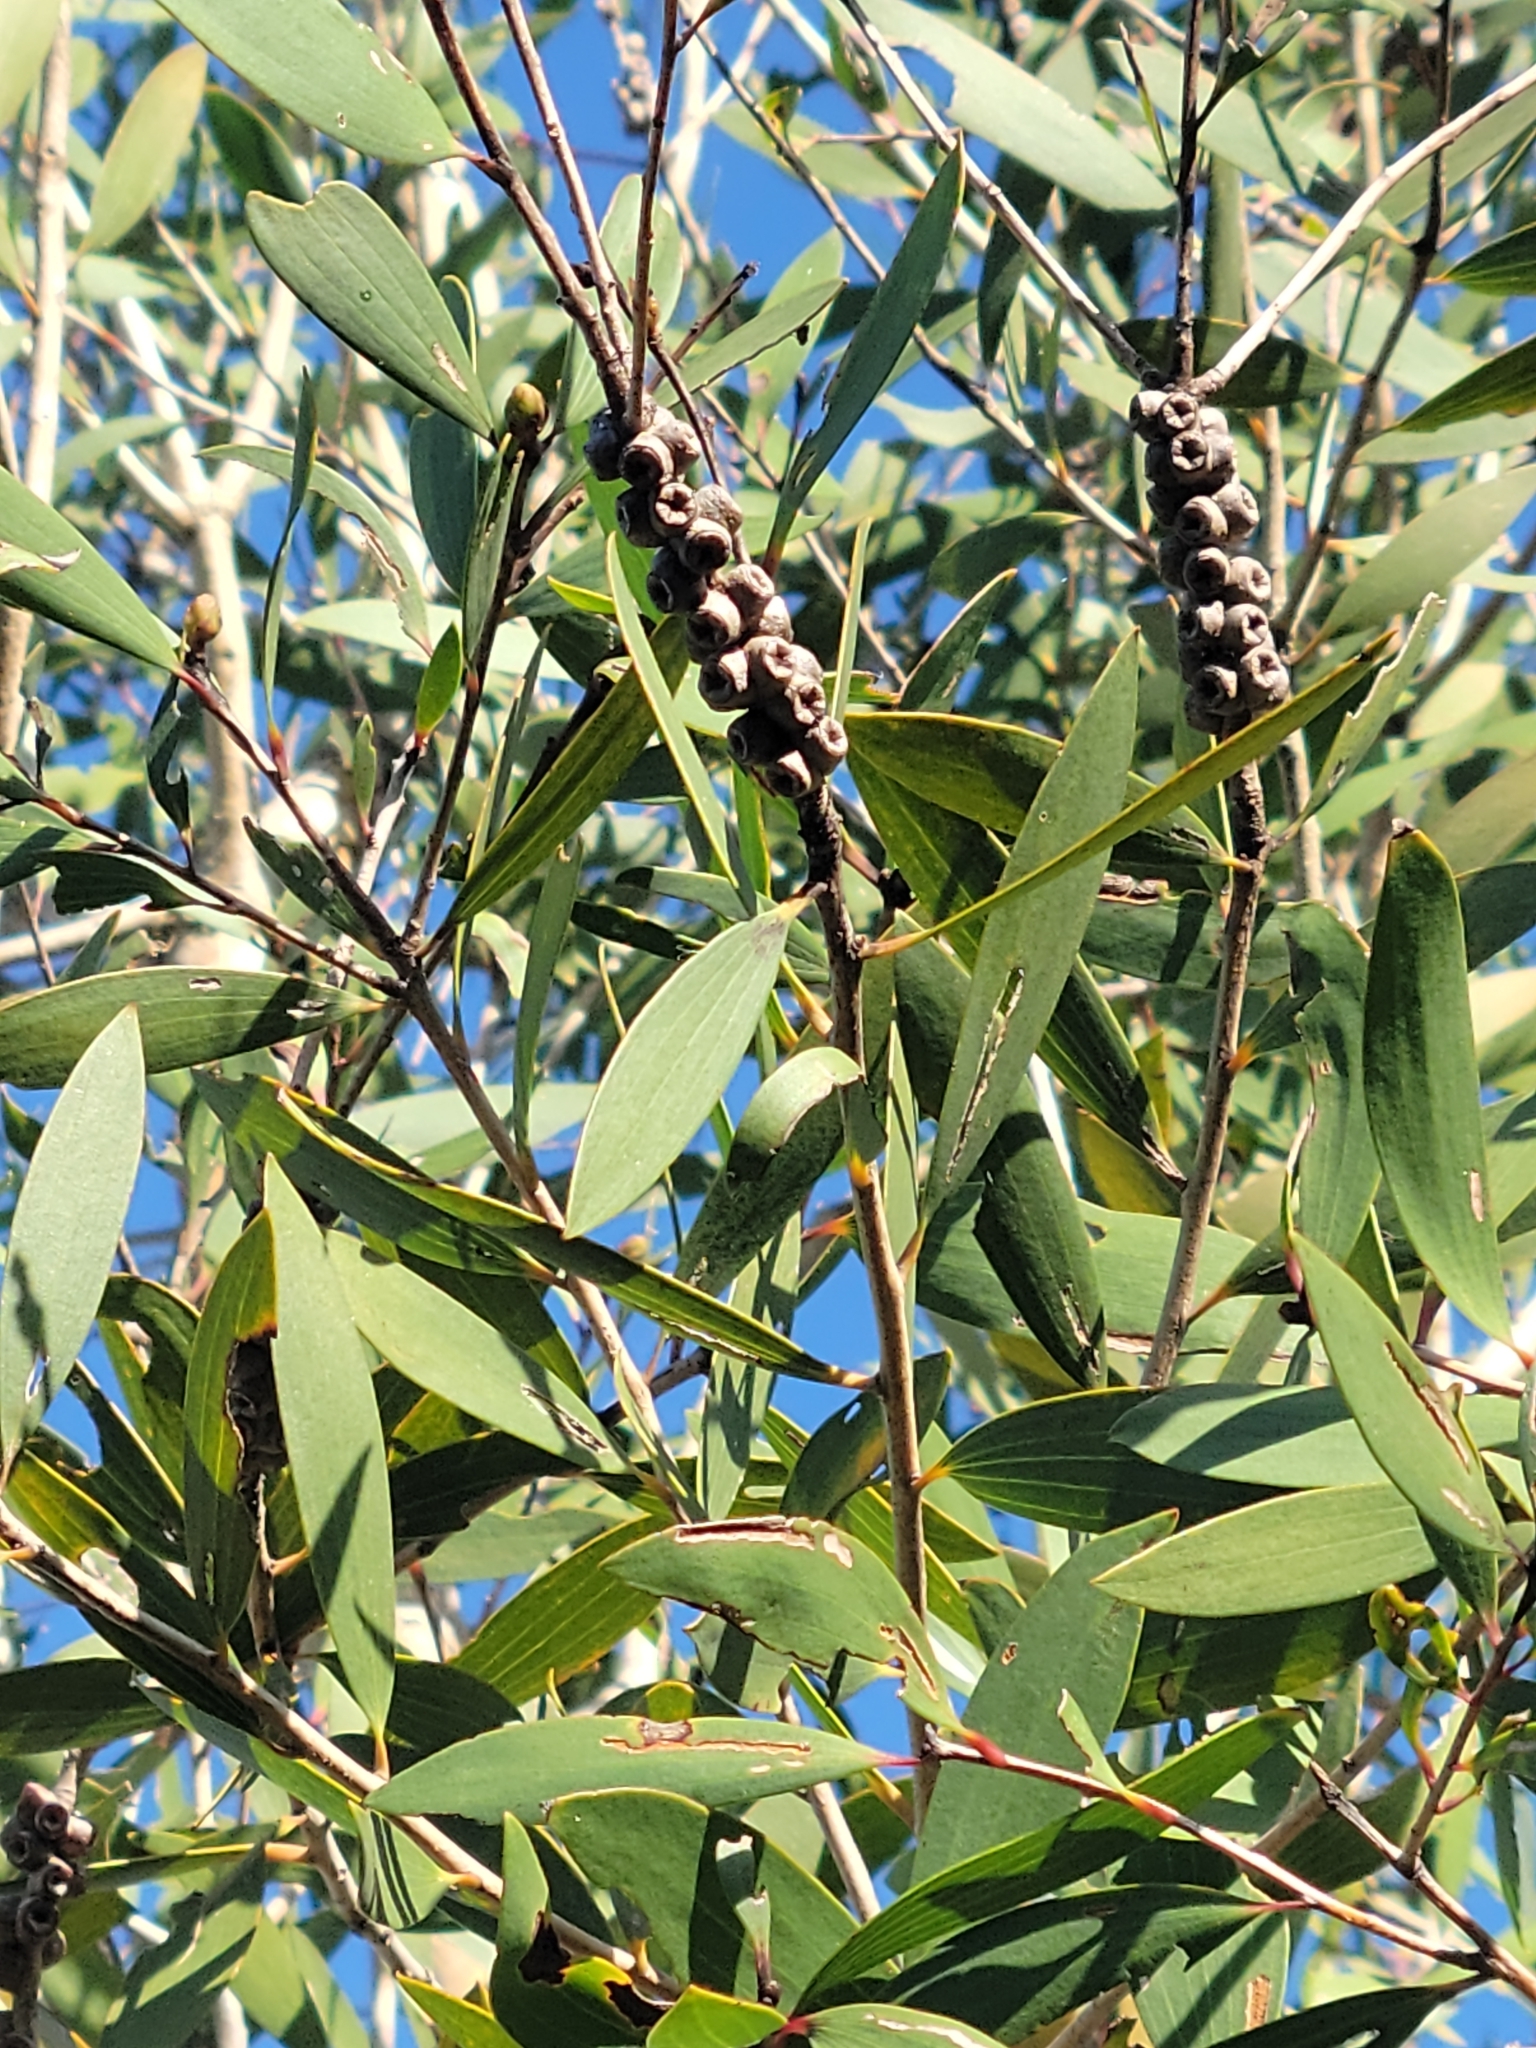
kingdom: Plantae
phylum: Tracheophyta
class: Magnoliopsida
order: Myrtales
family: Myrtaceae
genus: Melaleuca
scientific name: Melaleuca quinquenervia
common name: Punktree
